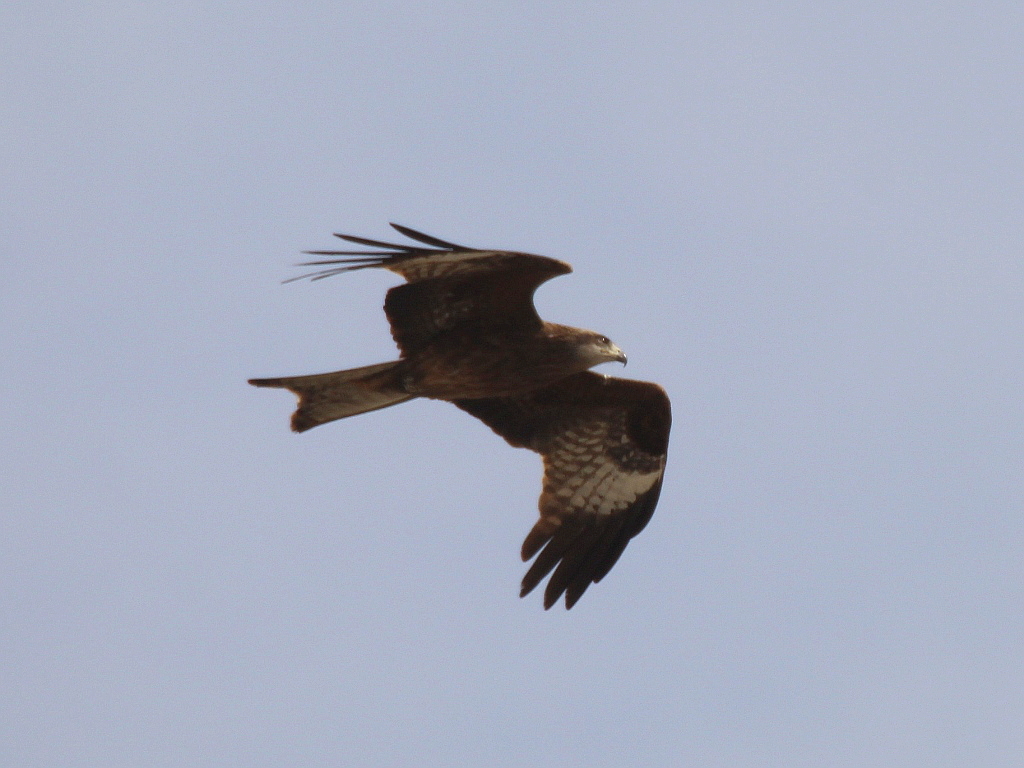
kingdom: Animalia
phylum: Chordata
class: Aves
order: Accipitriformes
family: Accipitridae
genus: Milvus
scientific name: Milvus migrans
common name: Black kite
